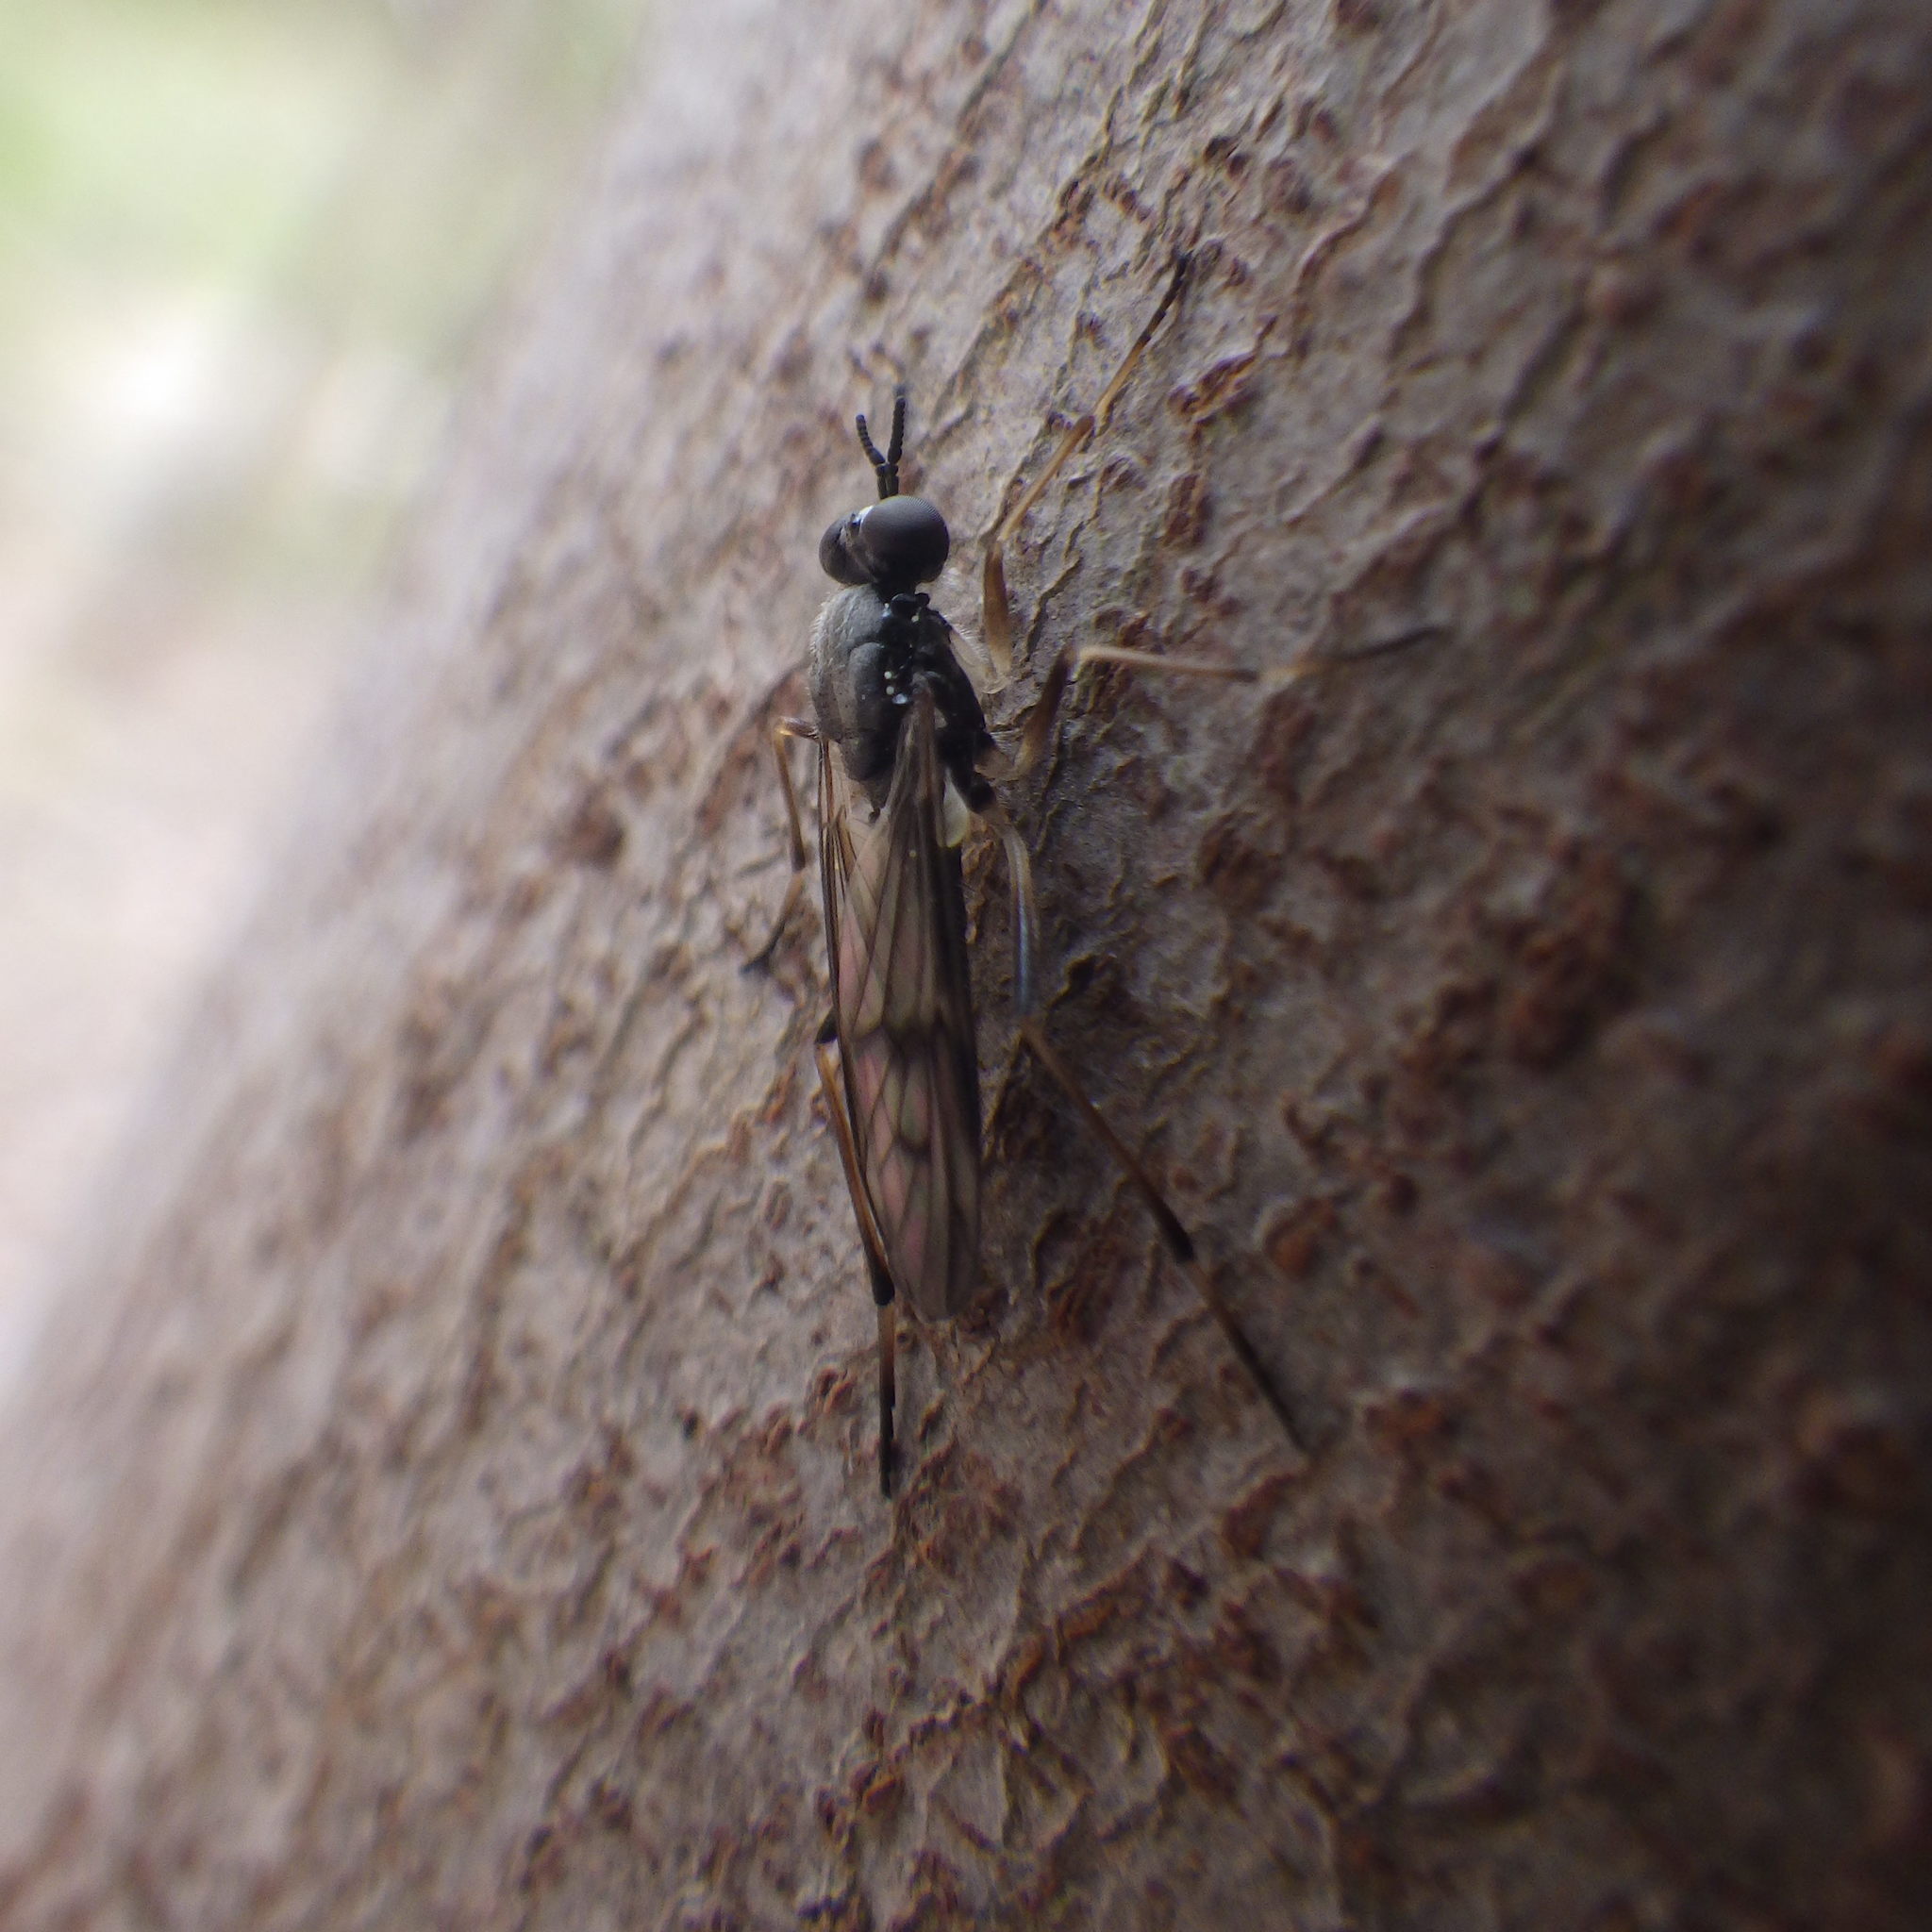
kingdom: Animalia
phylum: Arthropoda
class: Insecta
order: Diptera
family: Xylophagidae
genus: Xylophagus
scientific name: Xylophagus lugens
